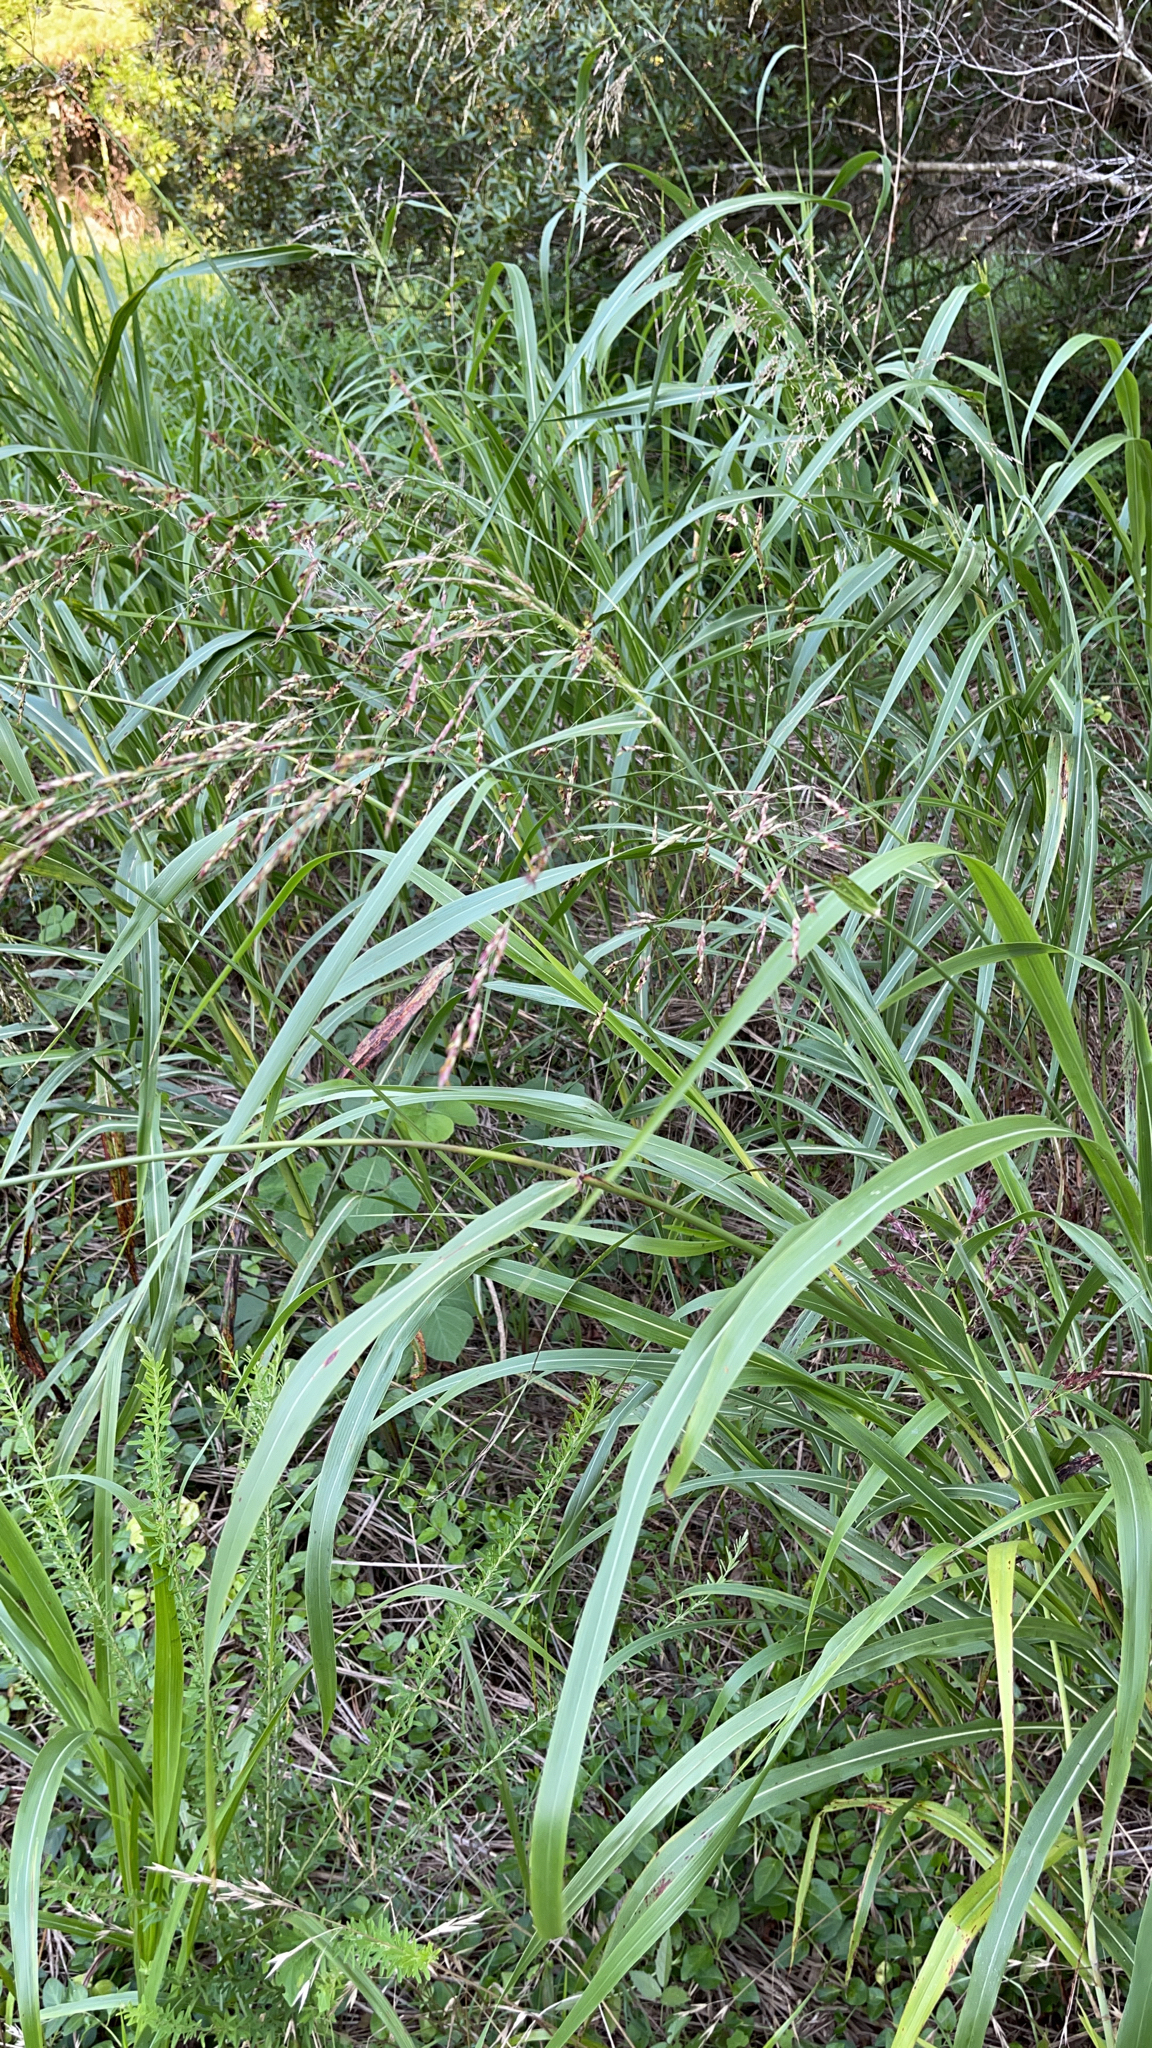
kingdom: Plantae
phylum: Tracheophyta
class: Liliopsida
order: Poales
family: Poaceae
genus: Sorghum
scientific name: Sorghum halepense
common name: Johnson-grass
